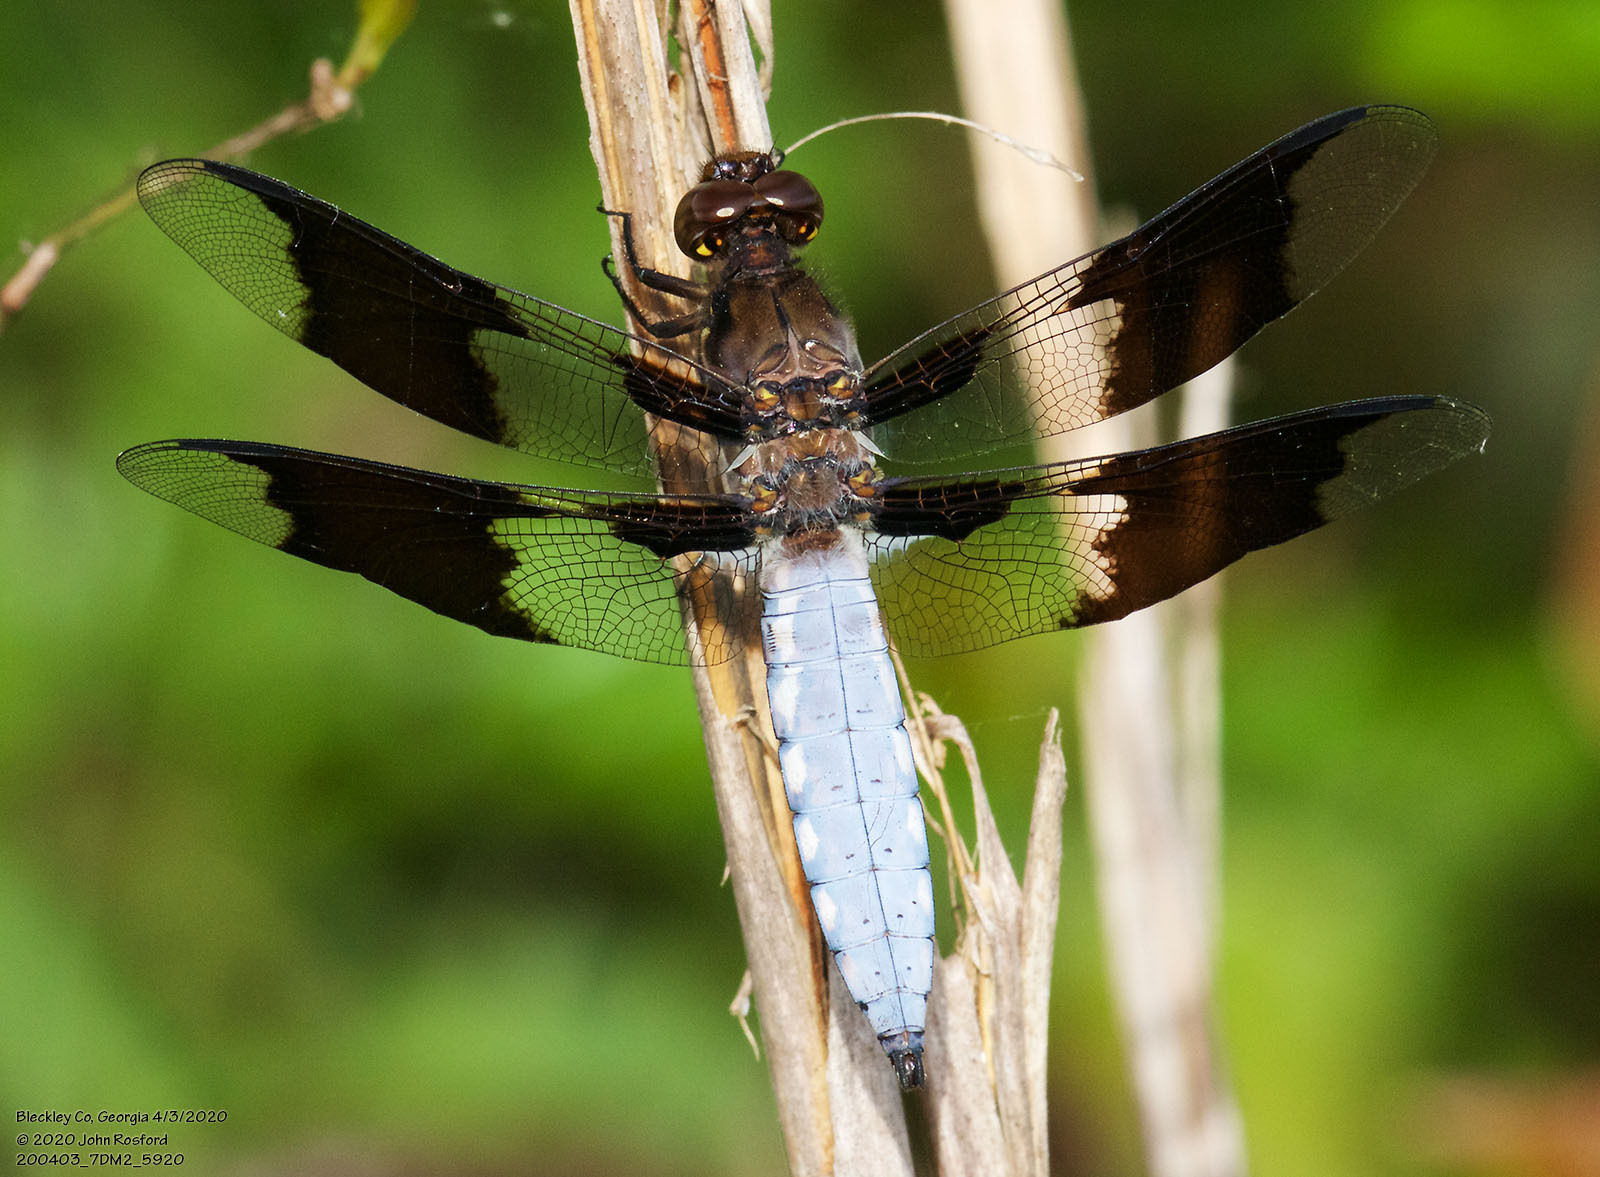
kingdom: Animalia
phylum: Arthropoda
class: Insecta
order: Odonata
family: Libellulidae
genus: Plathemis
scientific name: Plathemis lydia
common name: Common whitetail
